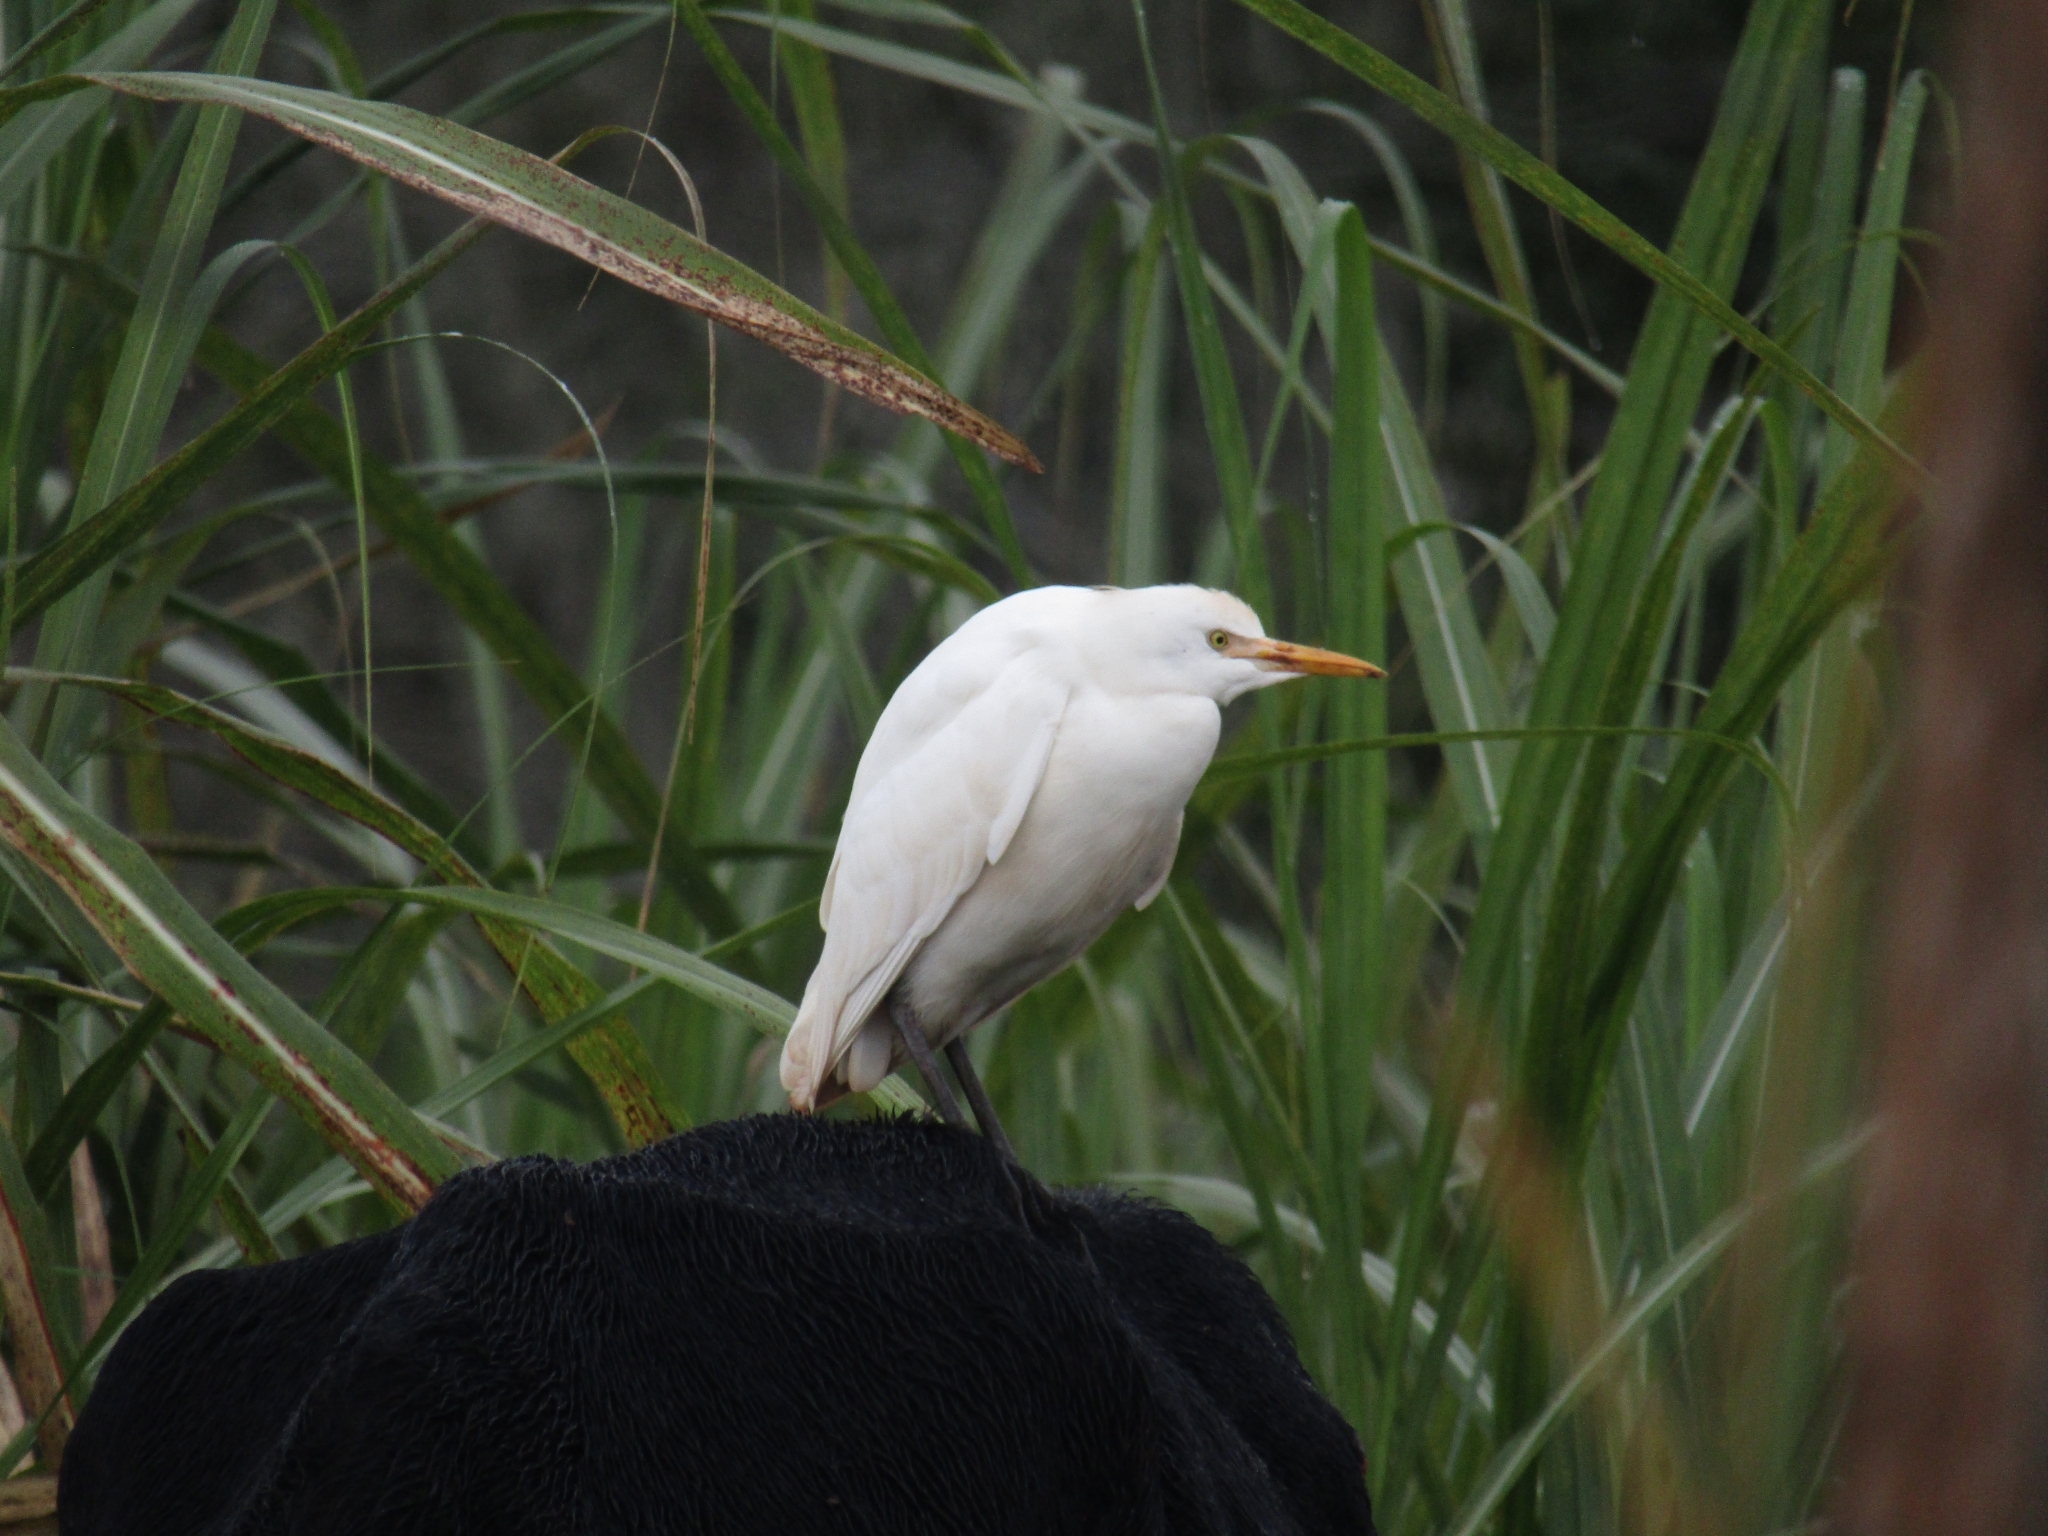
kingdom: Animalia
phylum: Chordata
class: Aves
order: Pelecaniformes
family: Ardeidae
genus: Bubulcus
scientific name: Bubulcus ibis
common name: Cattle egret
